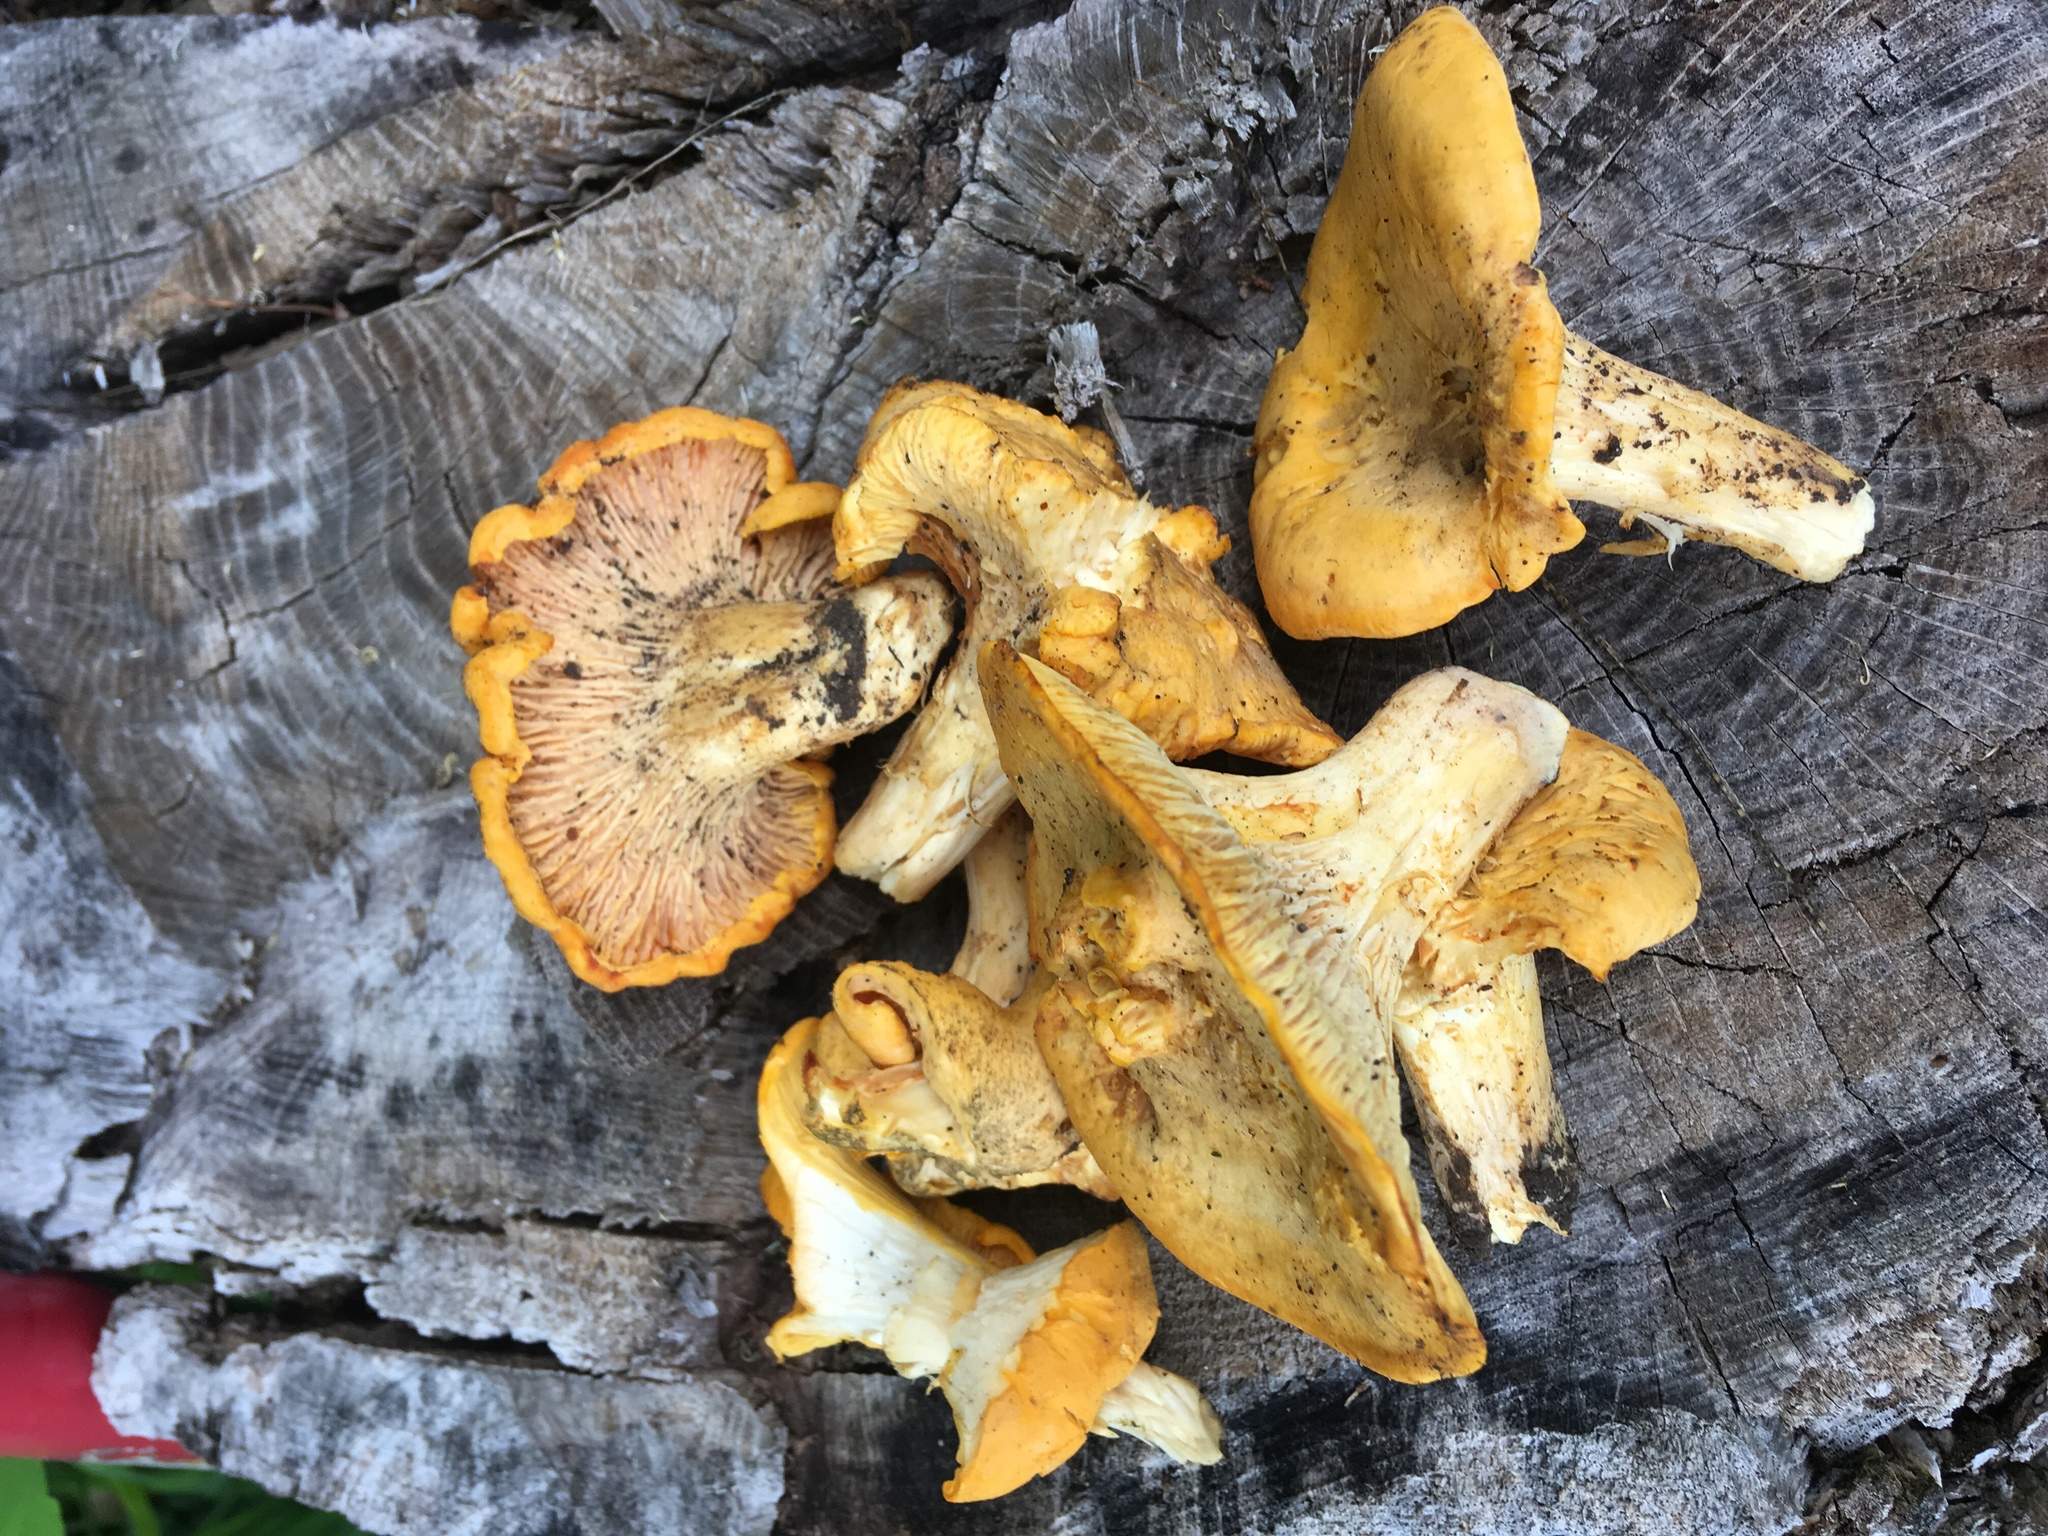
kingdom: Fungi
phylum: Basidiomycota
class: Agaricomycetes
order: Cantharellales
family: Hydnaceae
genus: Cantharellus
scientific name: Cantharellus phasmatis
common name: Ghost chanterelle
